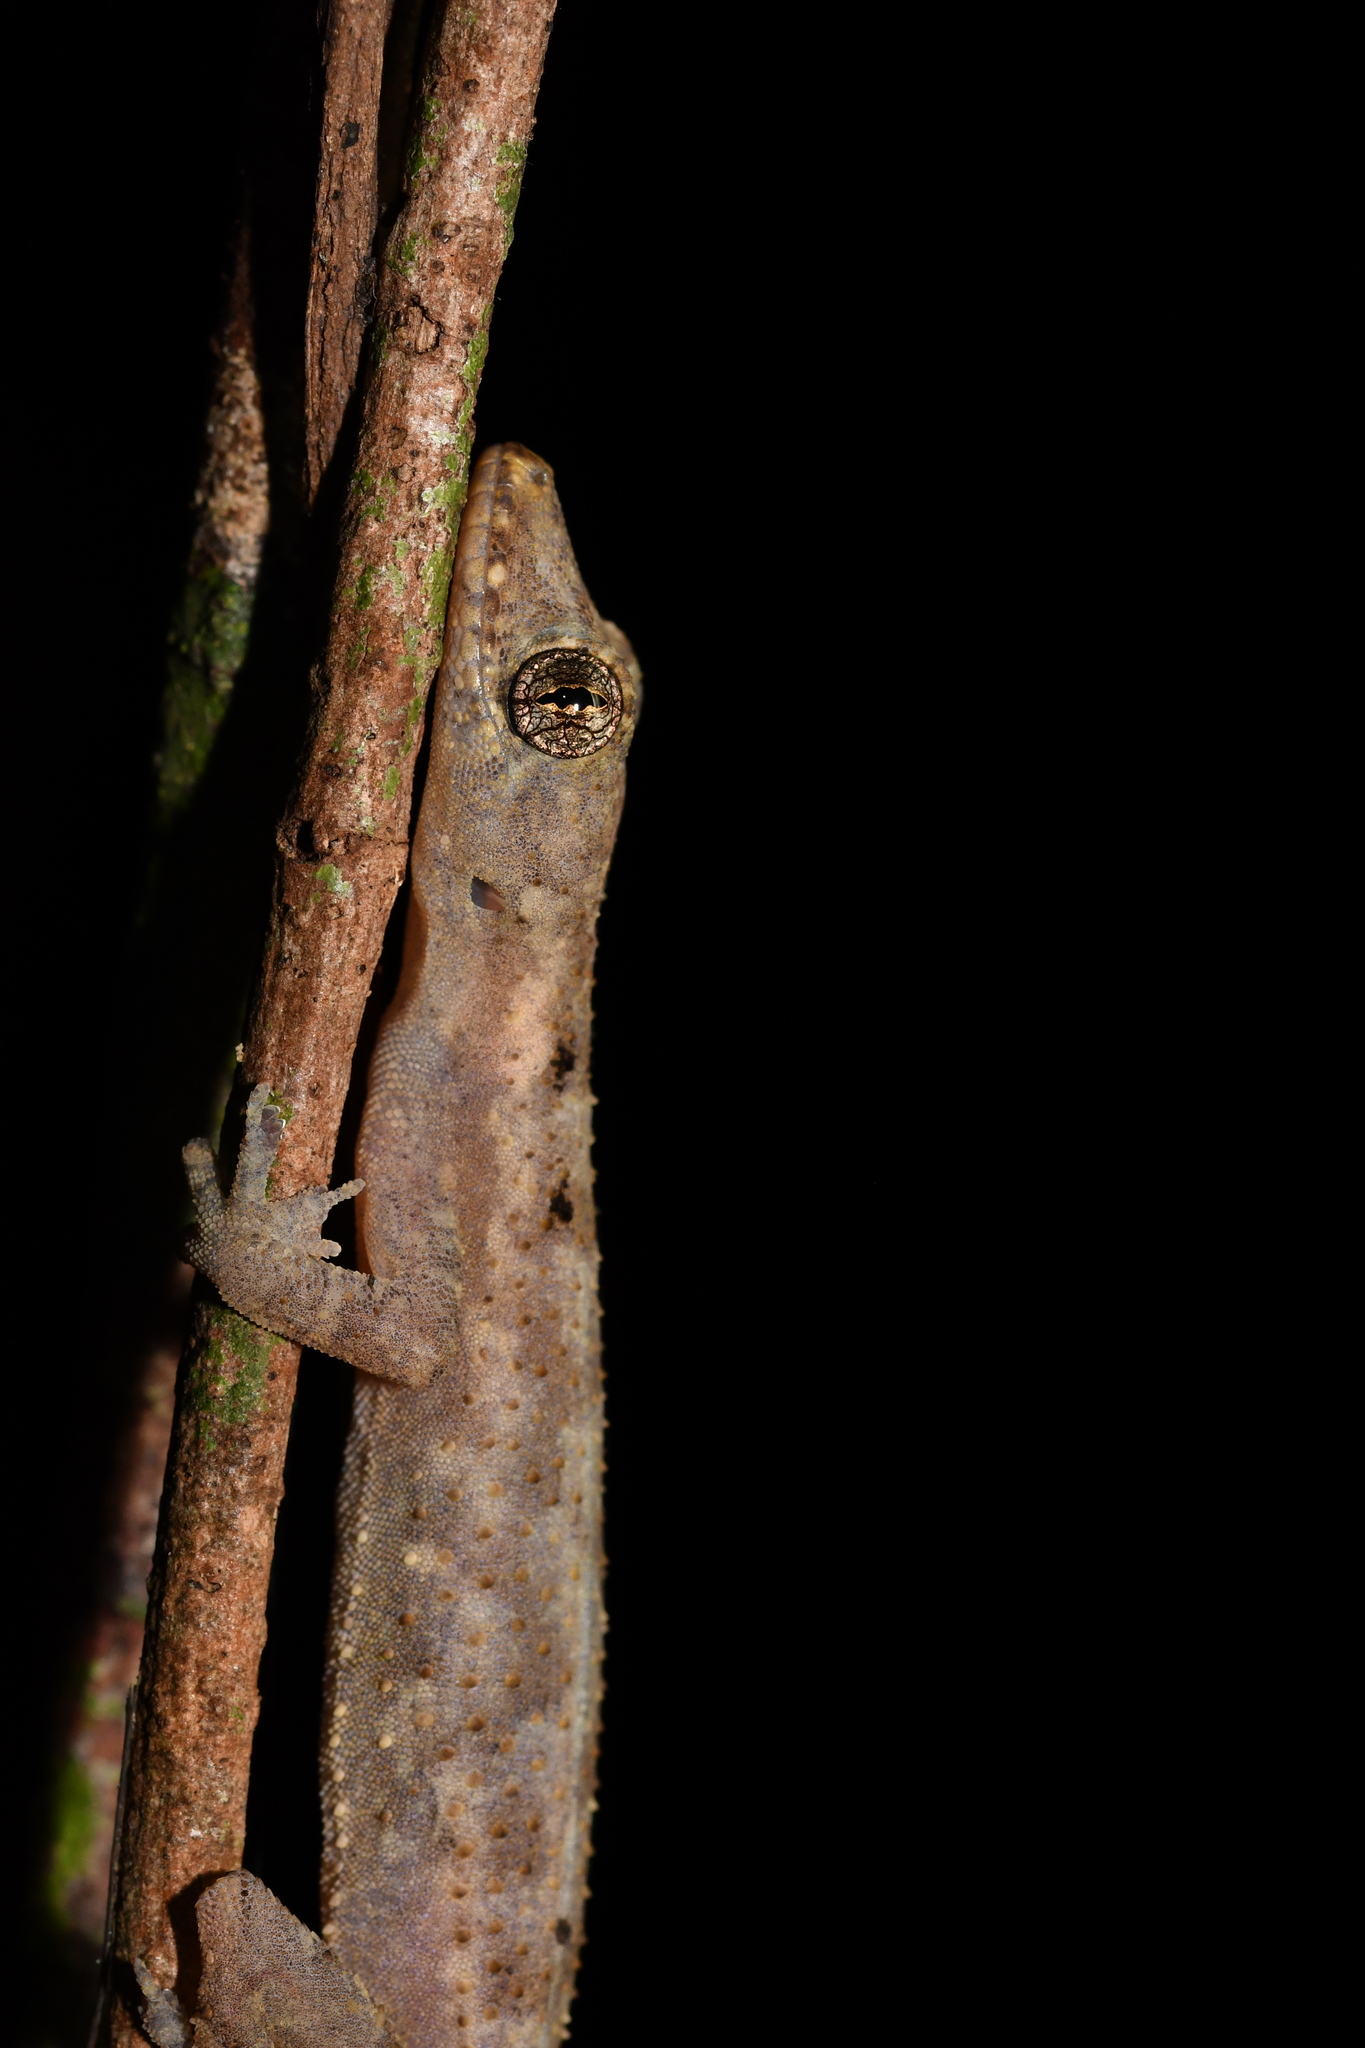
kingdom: Animalia
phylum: Chordata
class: Squamata
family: Gekkonidae
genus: Hemidactylus
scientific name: Hemidactylus ansorgii
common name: Nigeria leaf-toed gecko
